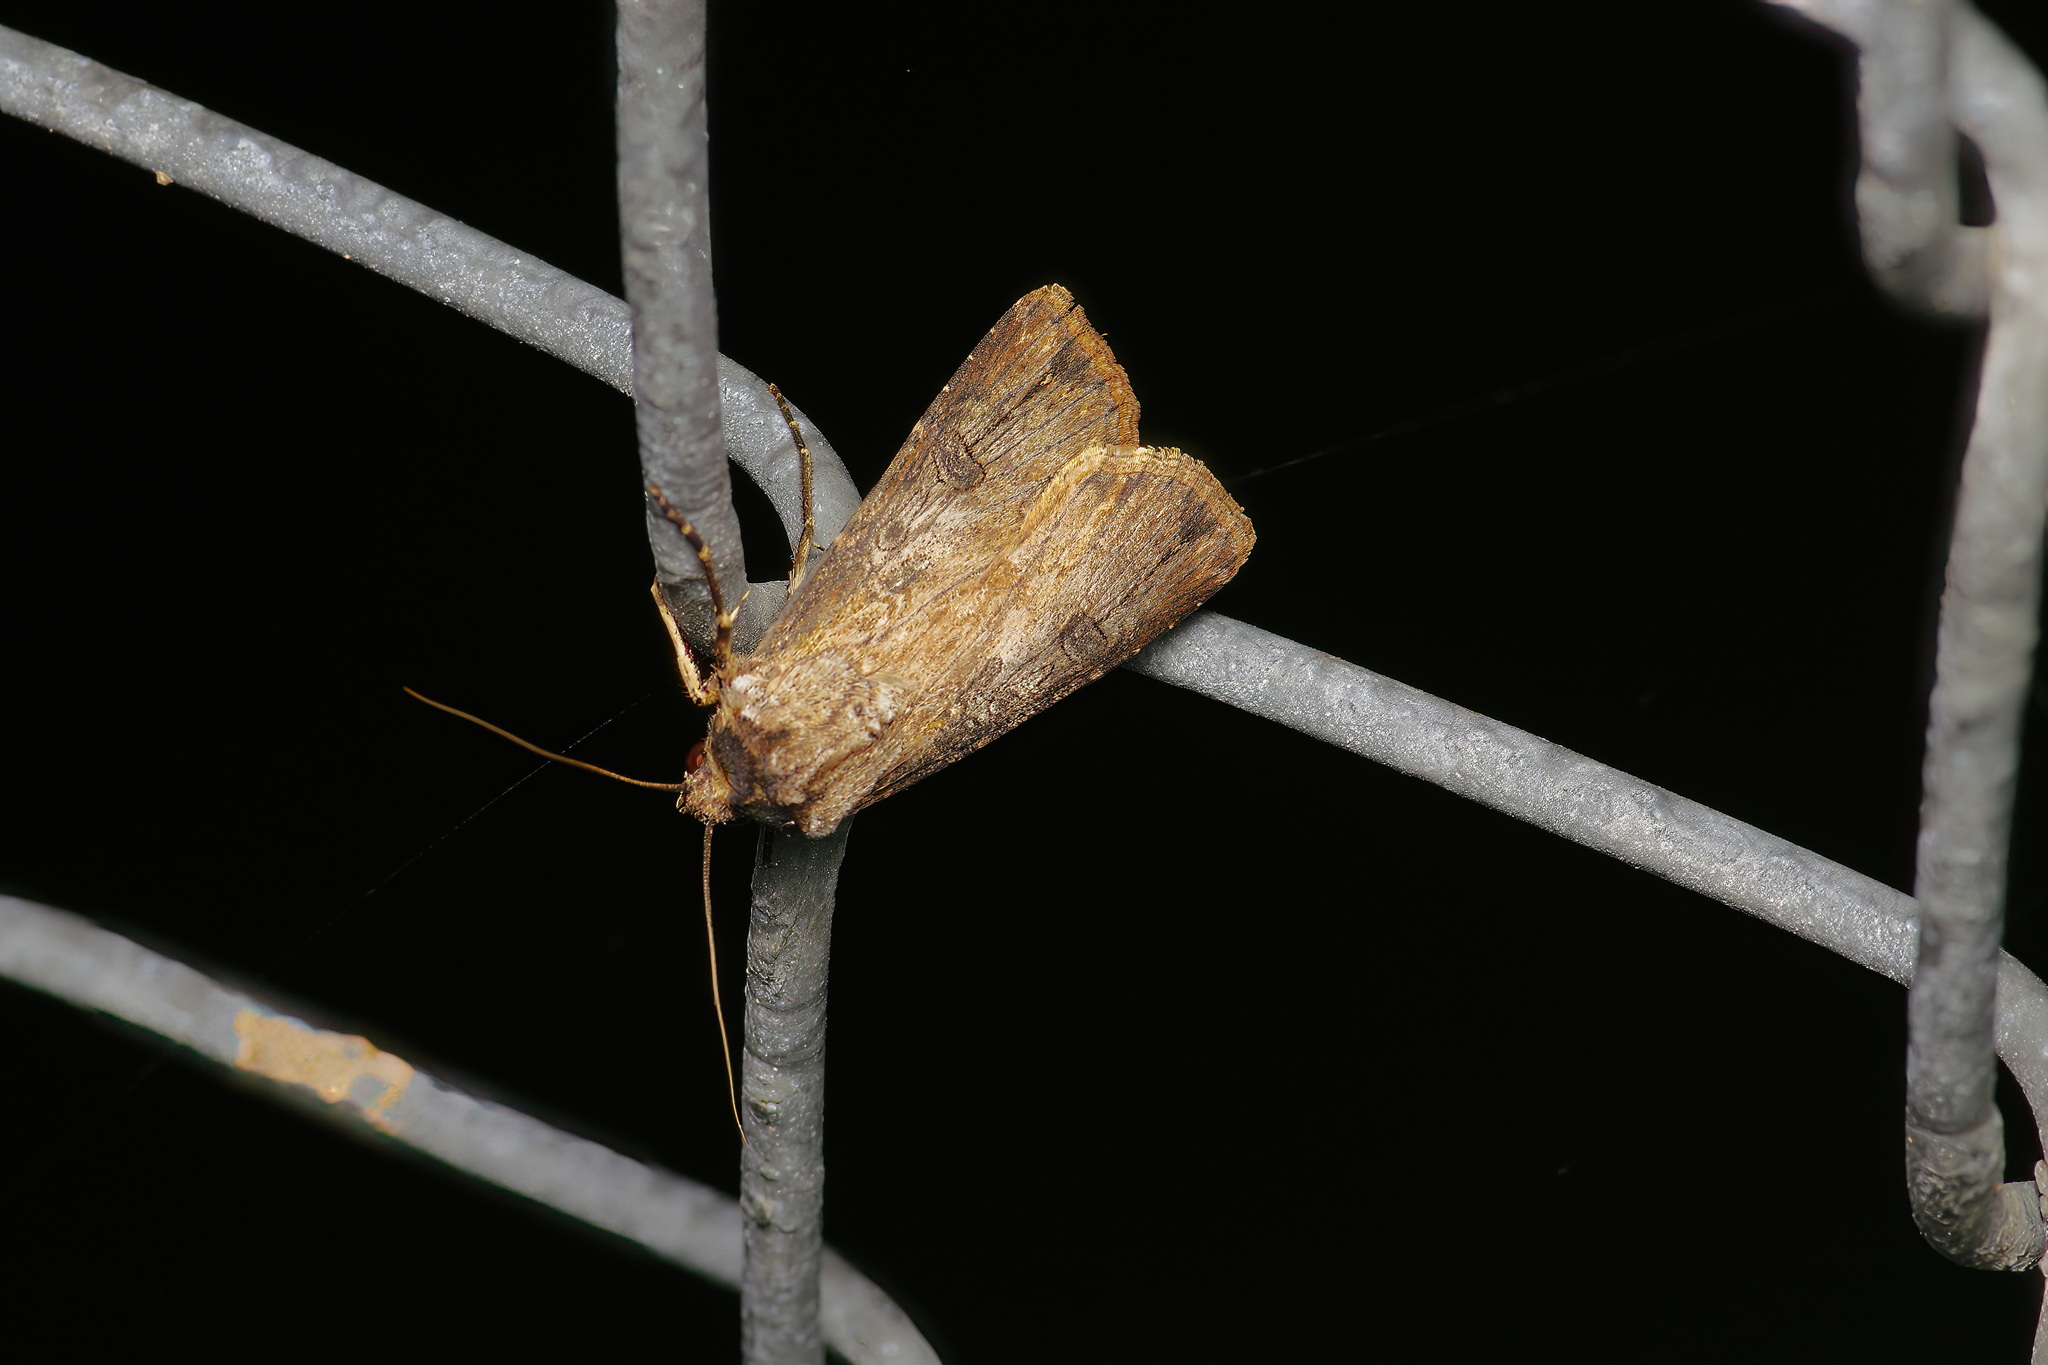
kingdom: Animalia
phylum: Arthropoda
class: Insecta
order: Lepidoptera
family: Noctuidae
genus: Agrotis
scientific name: Agrotis ipsilon
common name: Dark sword-grass
